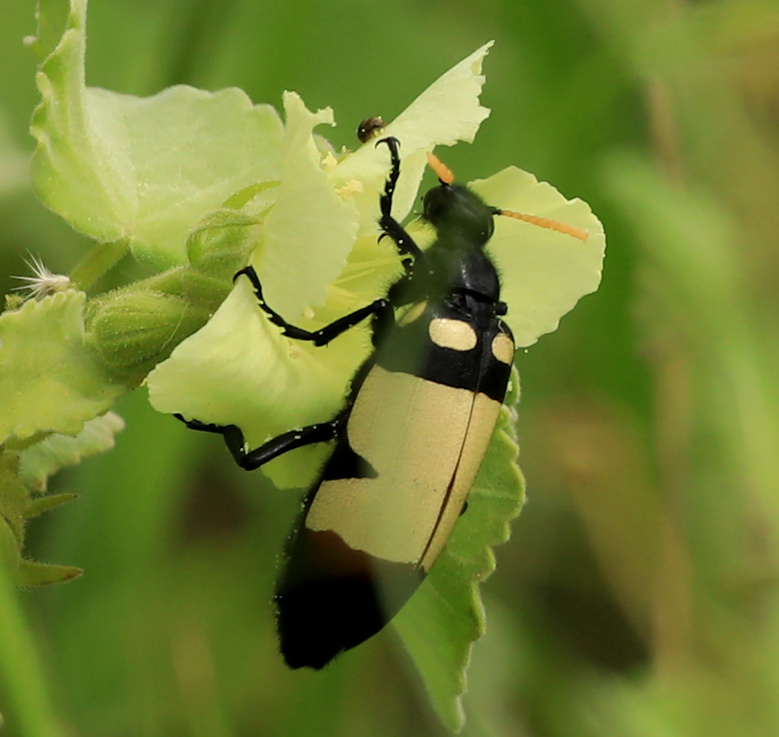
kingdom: Animalia
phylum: Arthropoda
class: Insecta
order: Coleoptera
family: Meloidae
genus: Hycleus
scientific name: Hycleus
